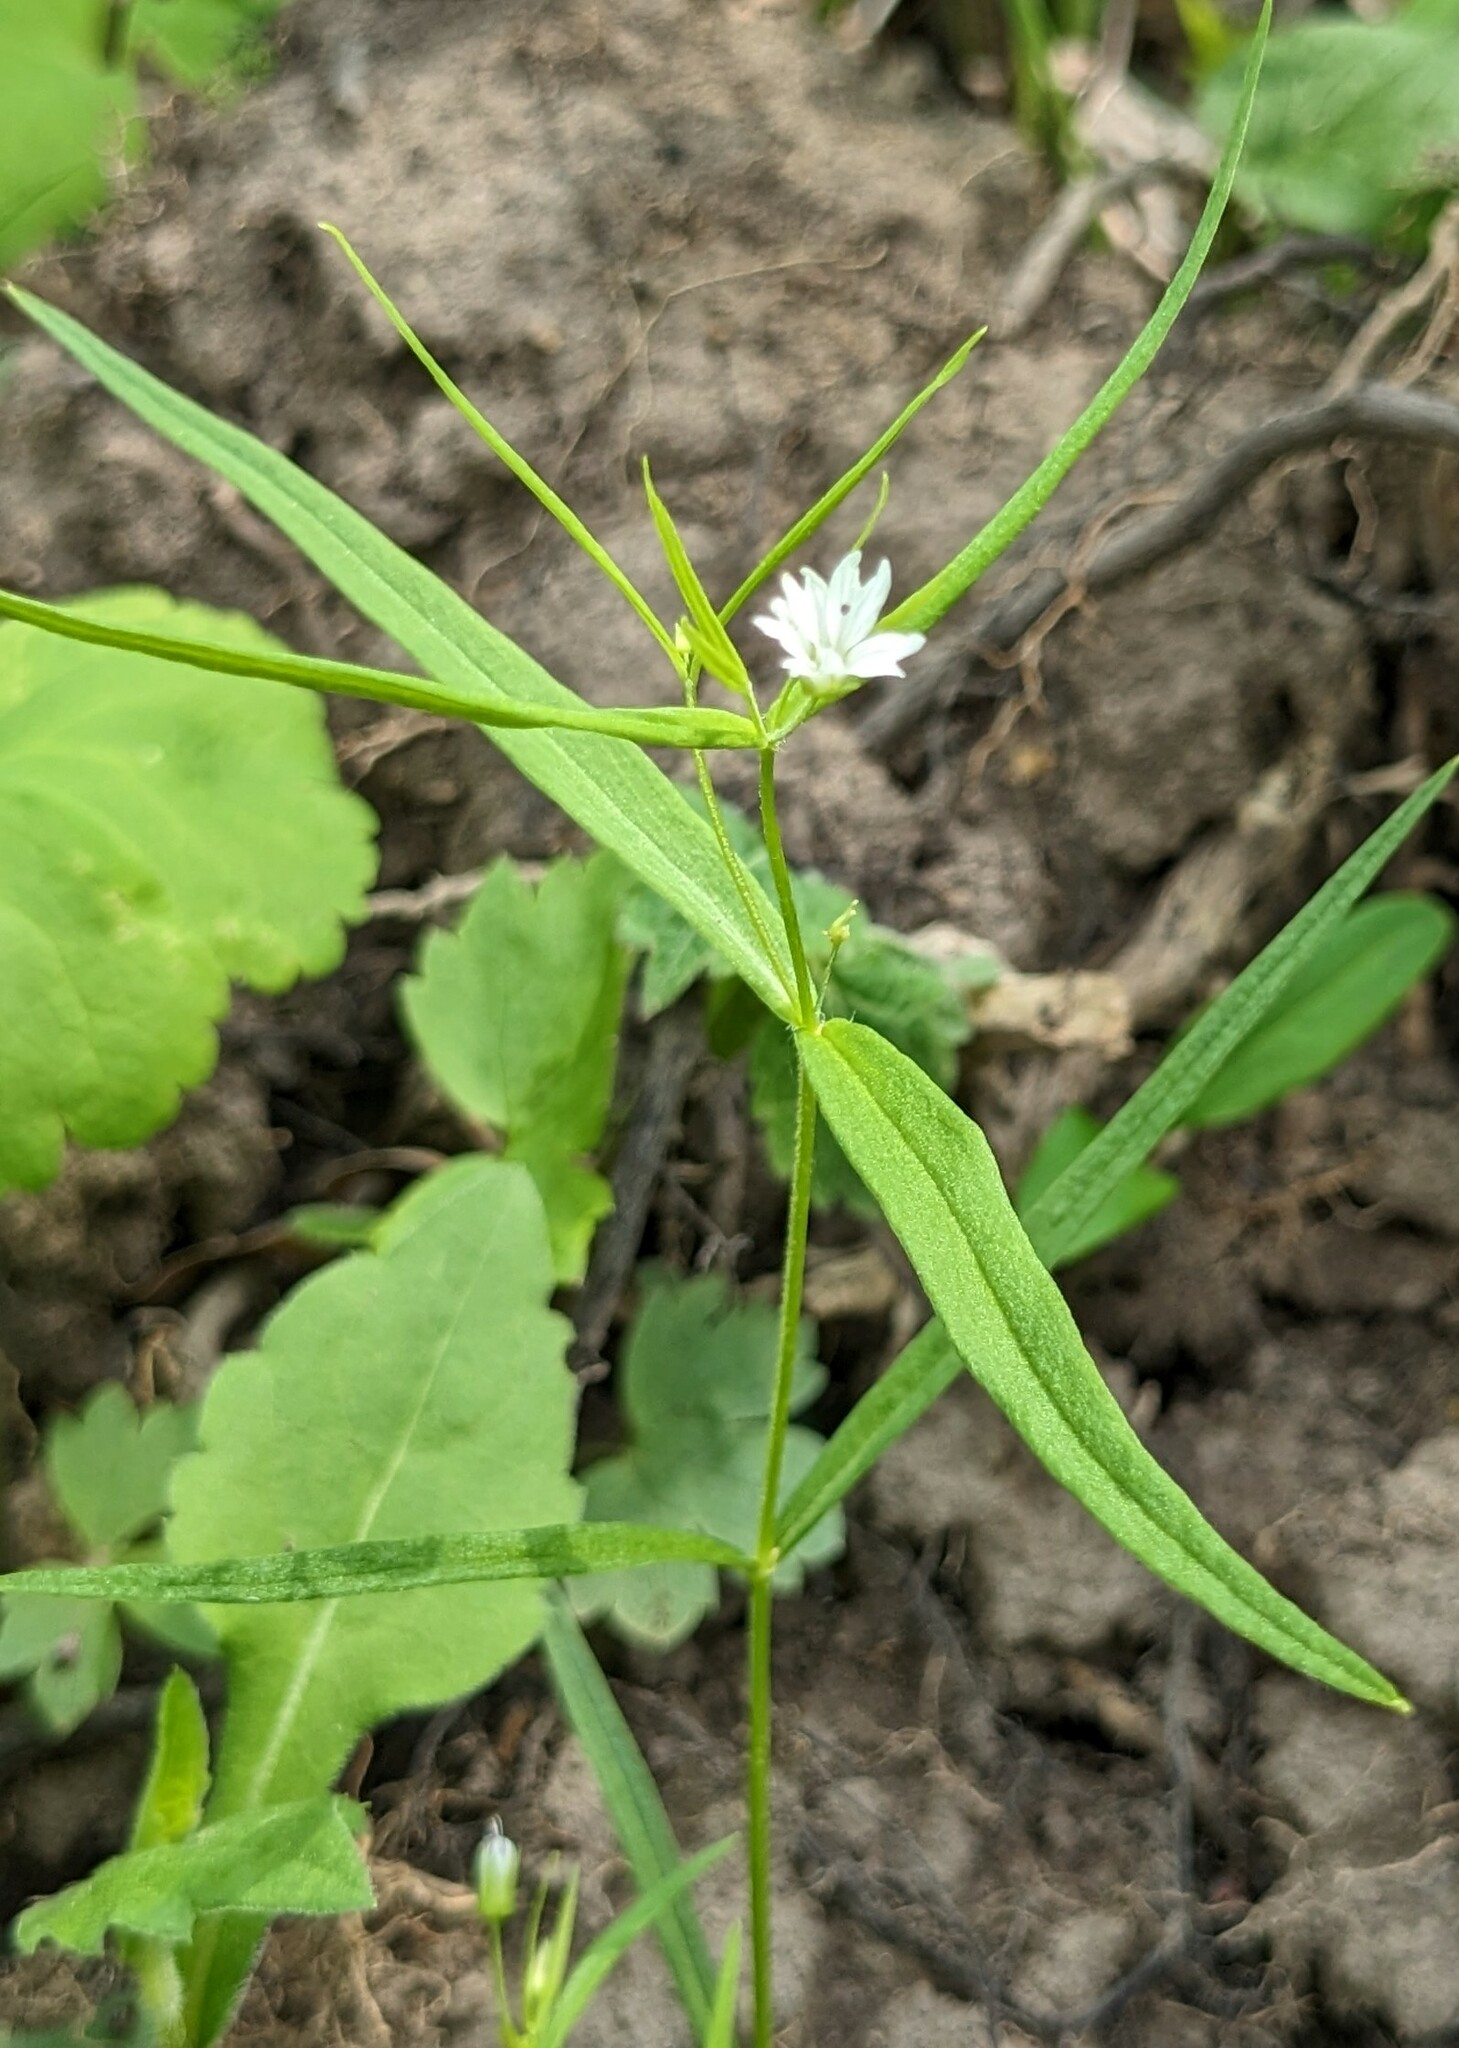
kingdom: Plantae
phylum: Tracheophyta
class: Magnoliopsida
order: Caryophyllales
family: Caryophyllaceae
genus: Pseudostellaria
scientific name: Pseudostellaria sylvatica
